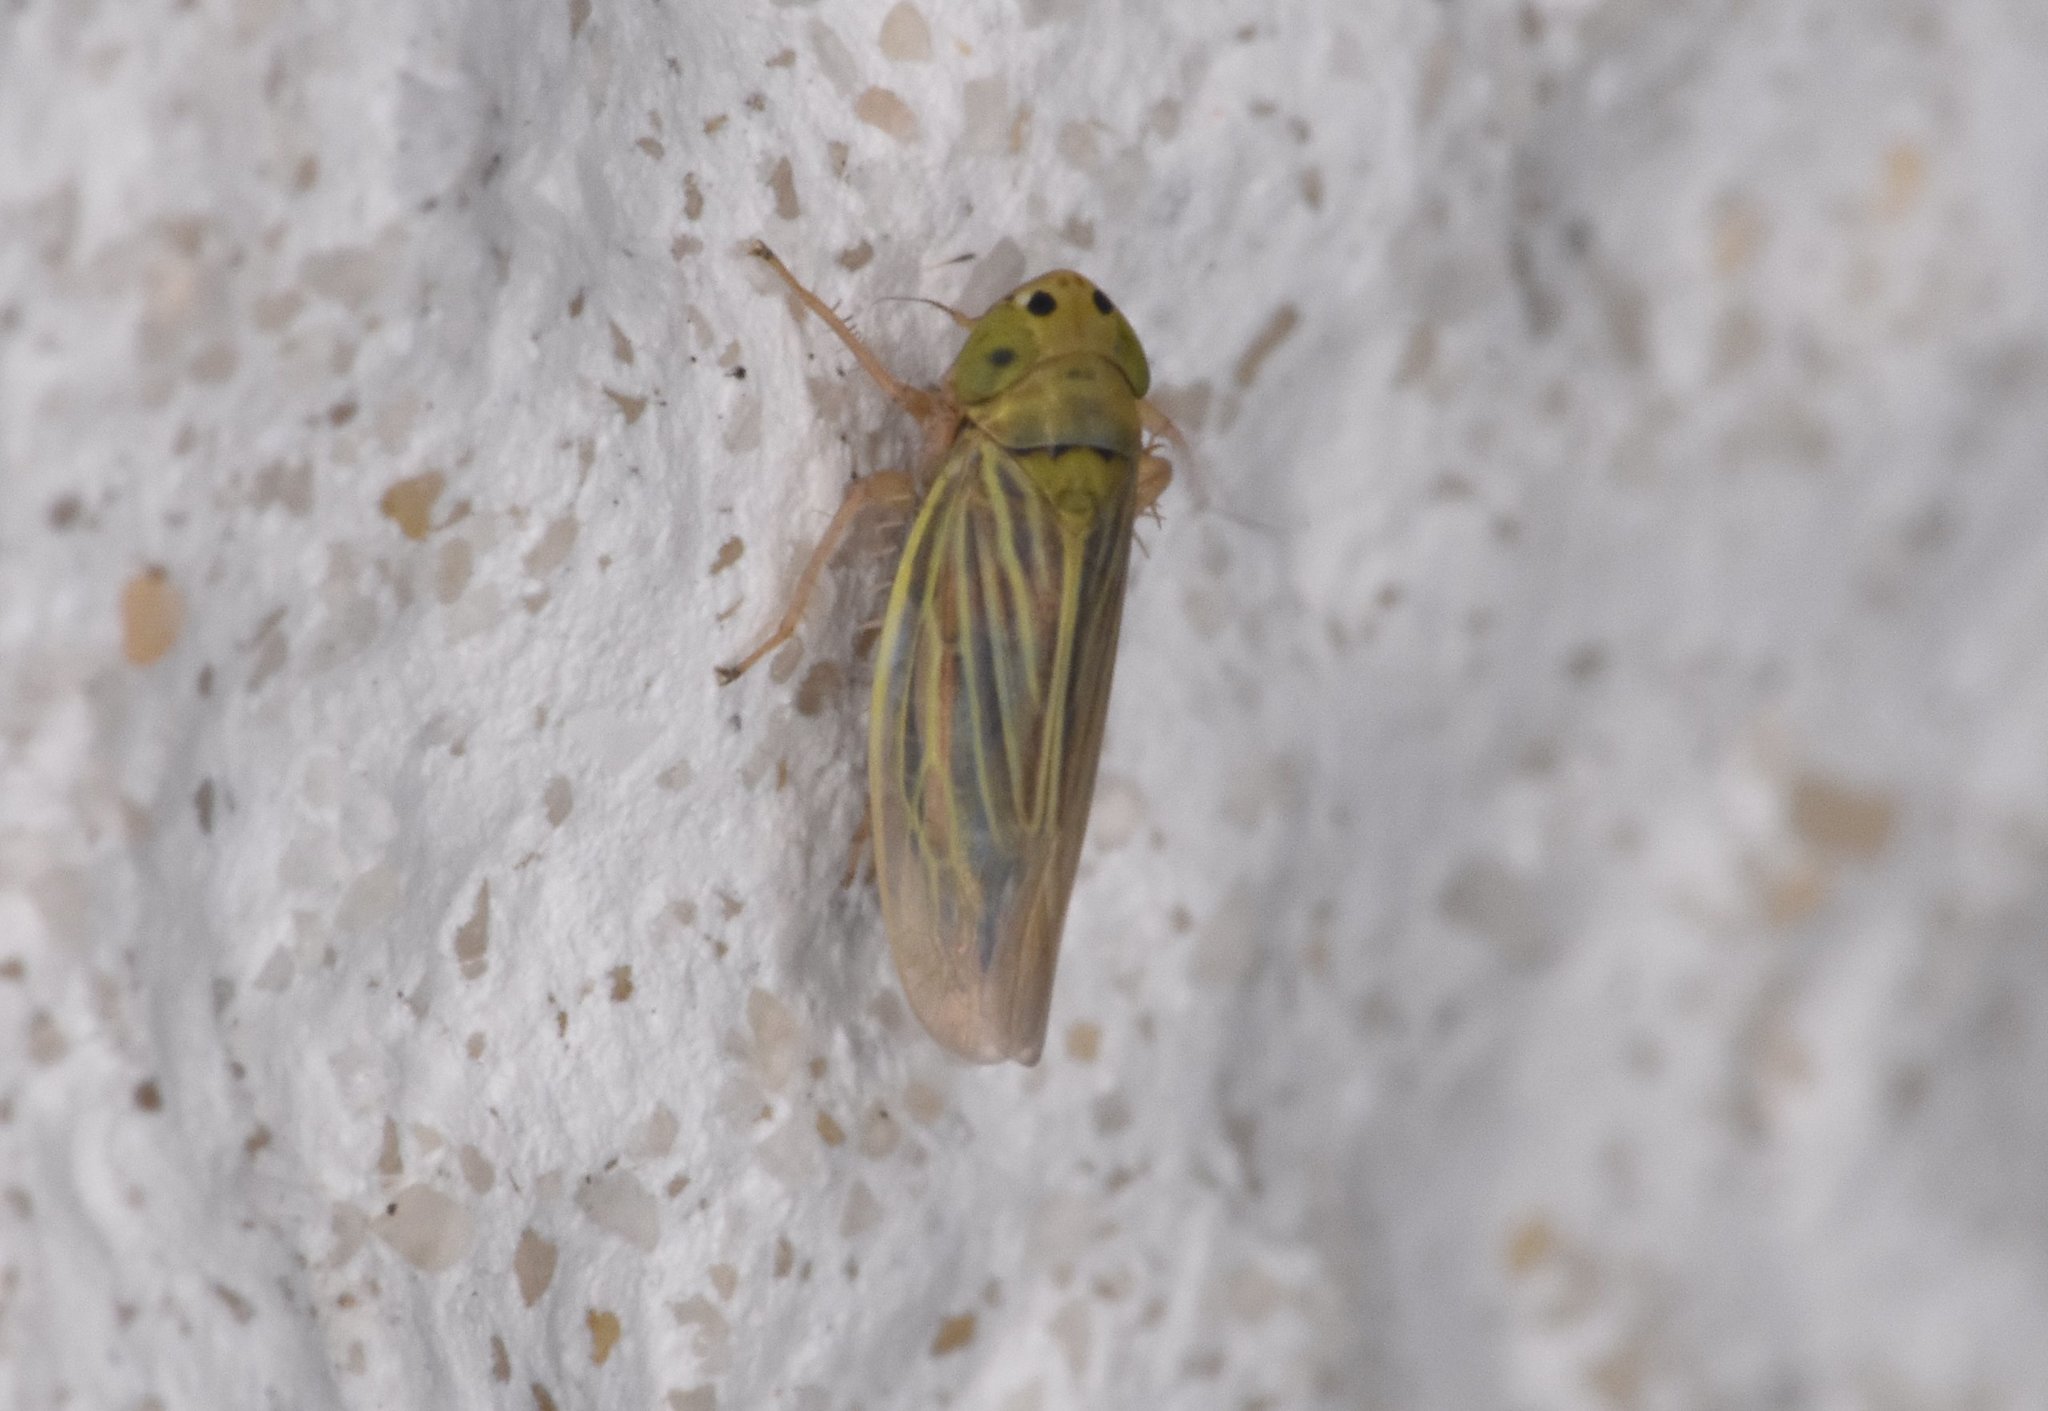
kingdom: Animalia
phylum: Arthropoda
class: Insecta
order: Hemiptera
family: Cicadellidae
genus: Graminella
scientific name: Graminella cognita
